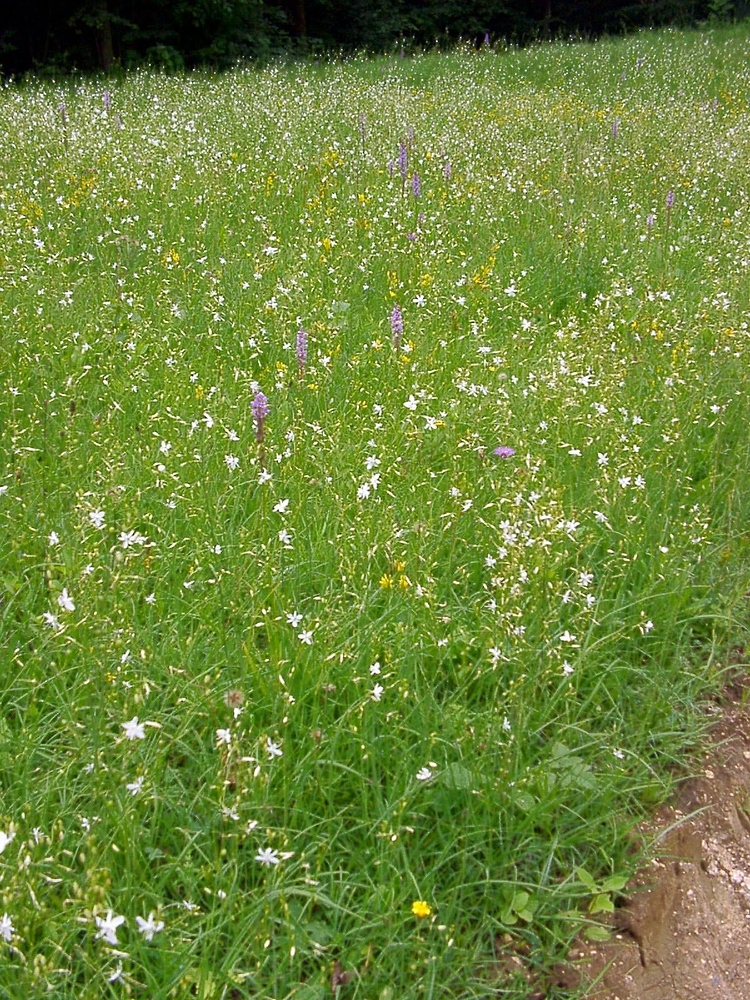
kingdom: Plantae
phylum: Tracheophyta
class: Liliopsida
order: Asparagales
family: Asparagaceae
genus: Anthericum
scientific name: Anthericum ramosum
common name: Branched st. bernard's-lily
